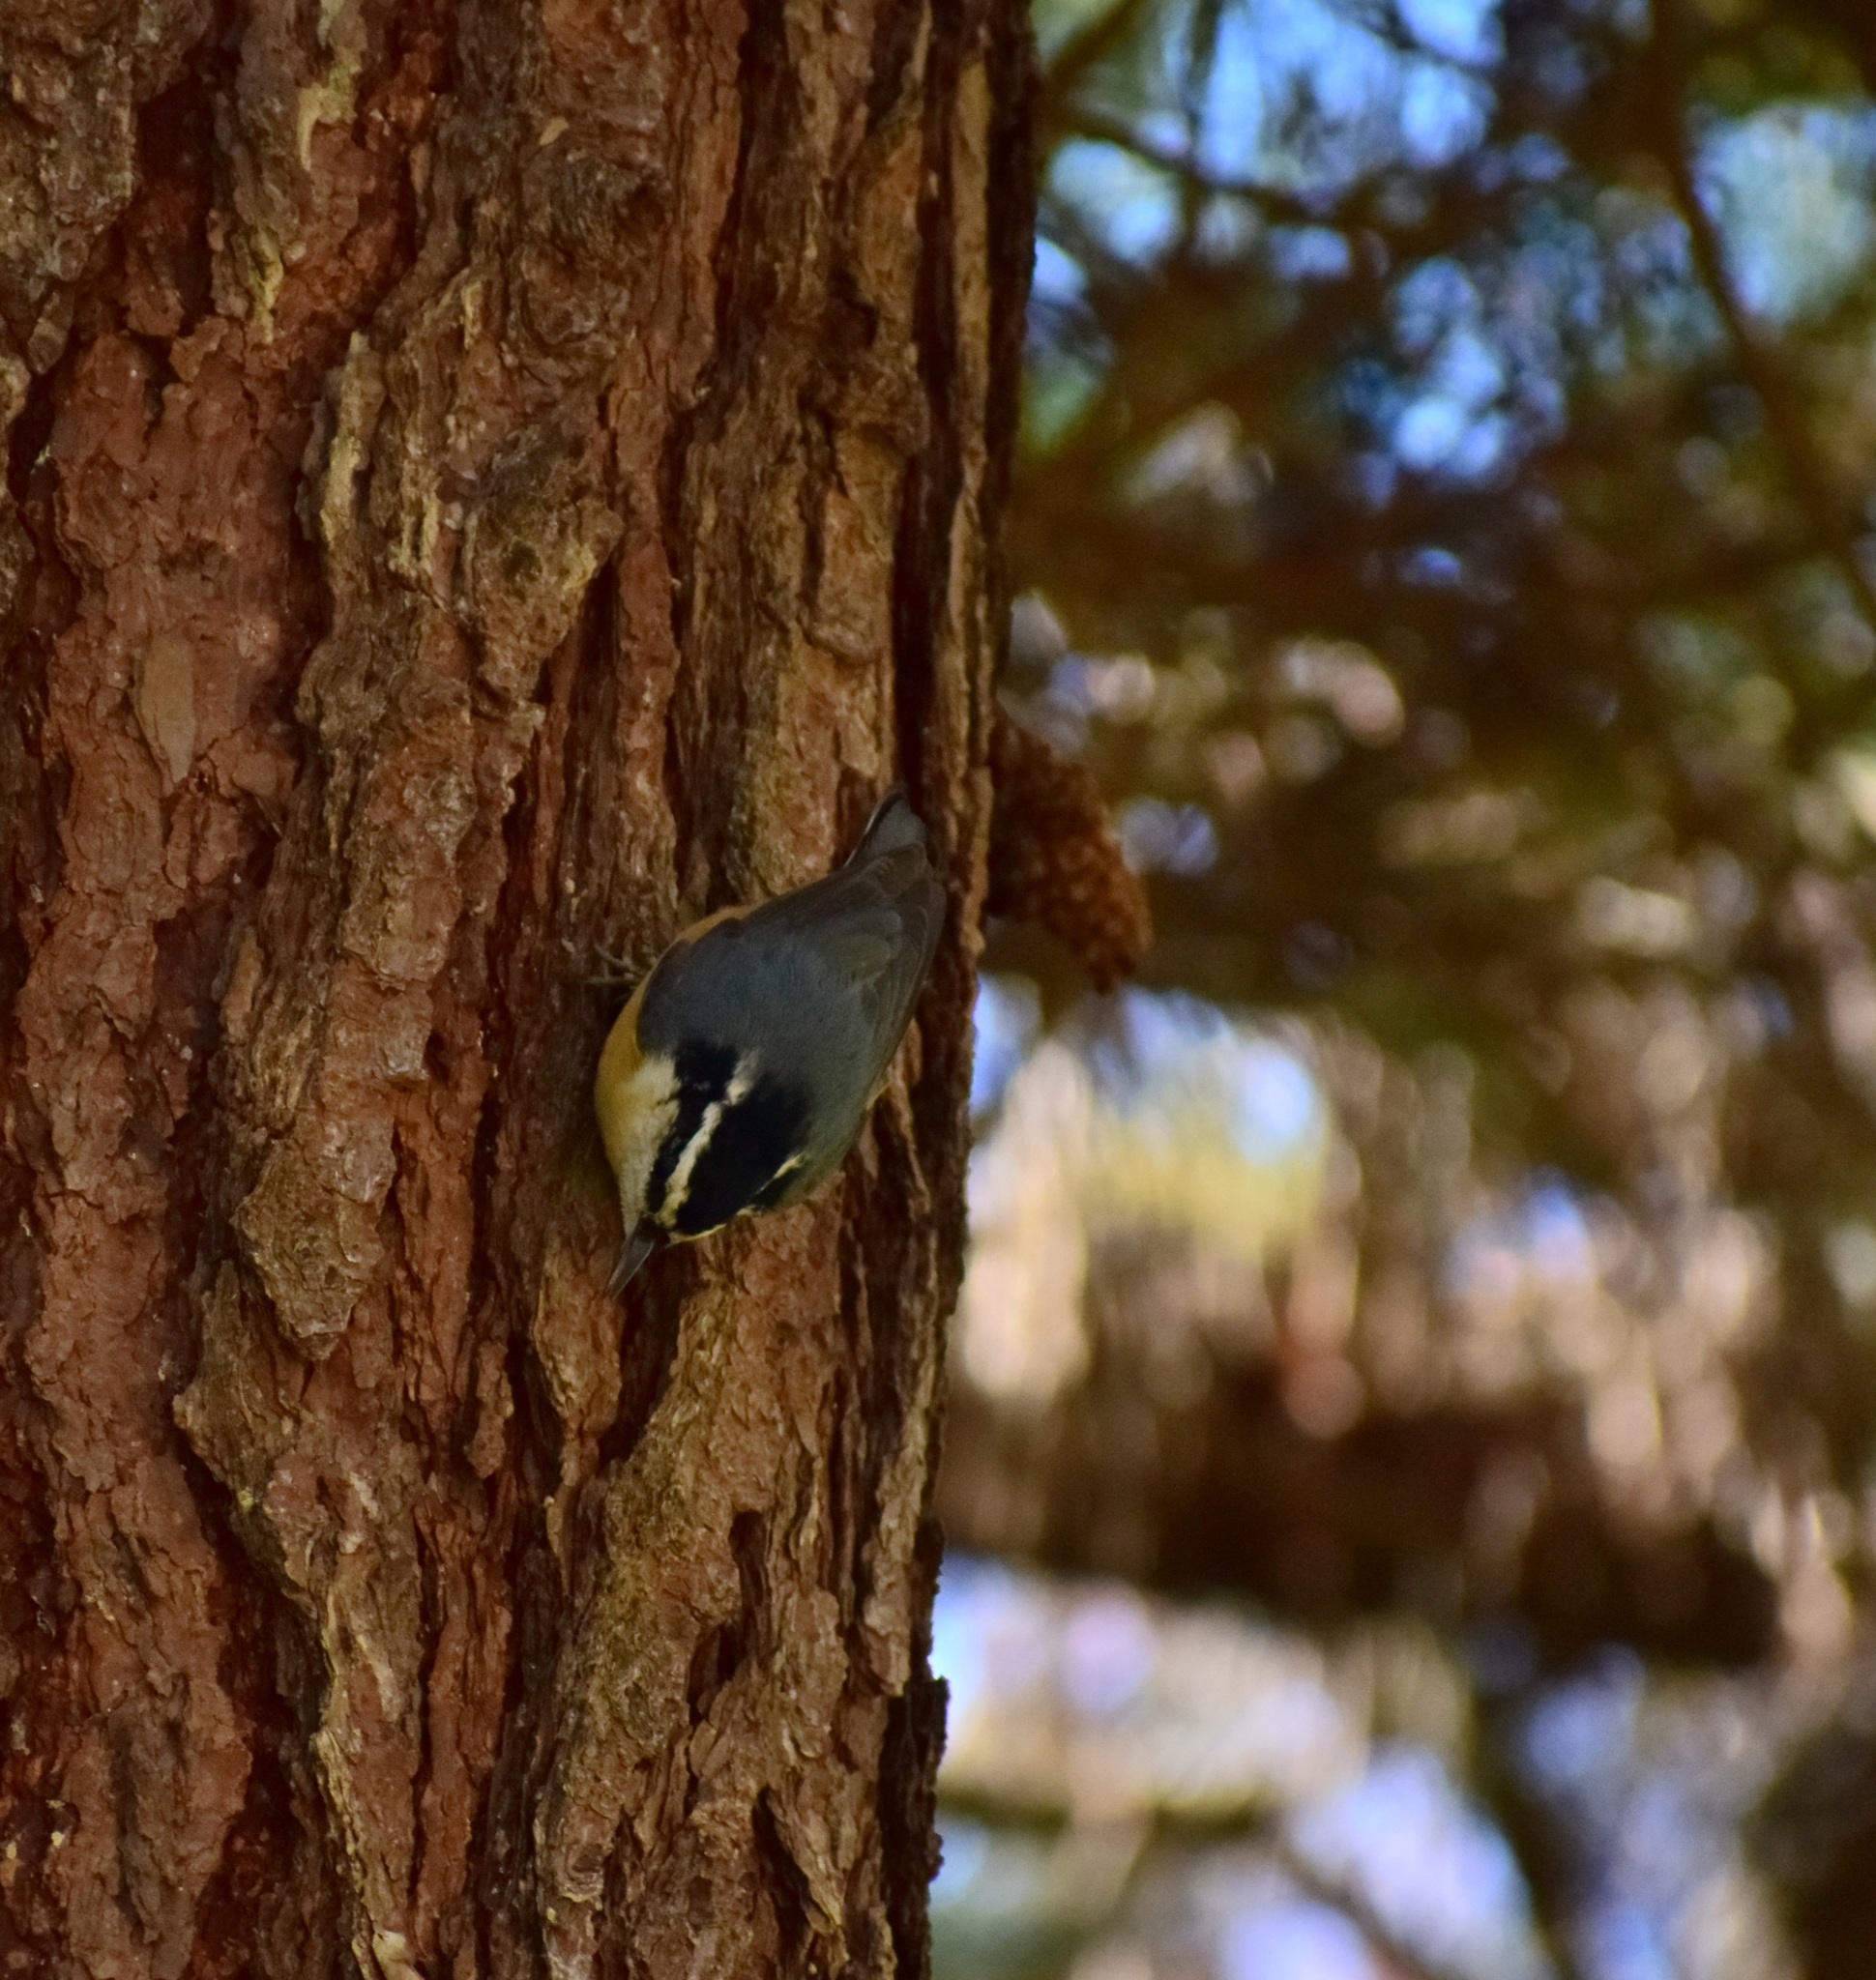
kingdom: Animalia
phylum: Chordata
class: Aves
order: Passeriformes
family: Sittidae
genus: Sitta
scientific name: Sitta canadensis
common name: Red-breasted nuthatch
